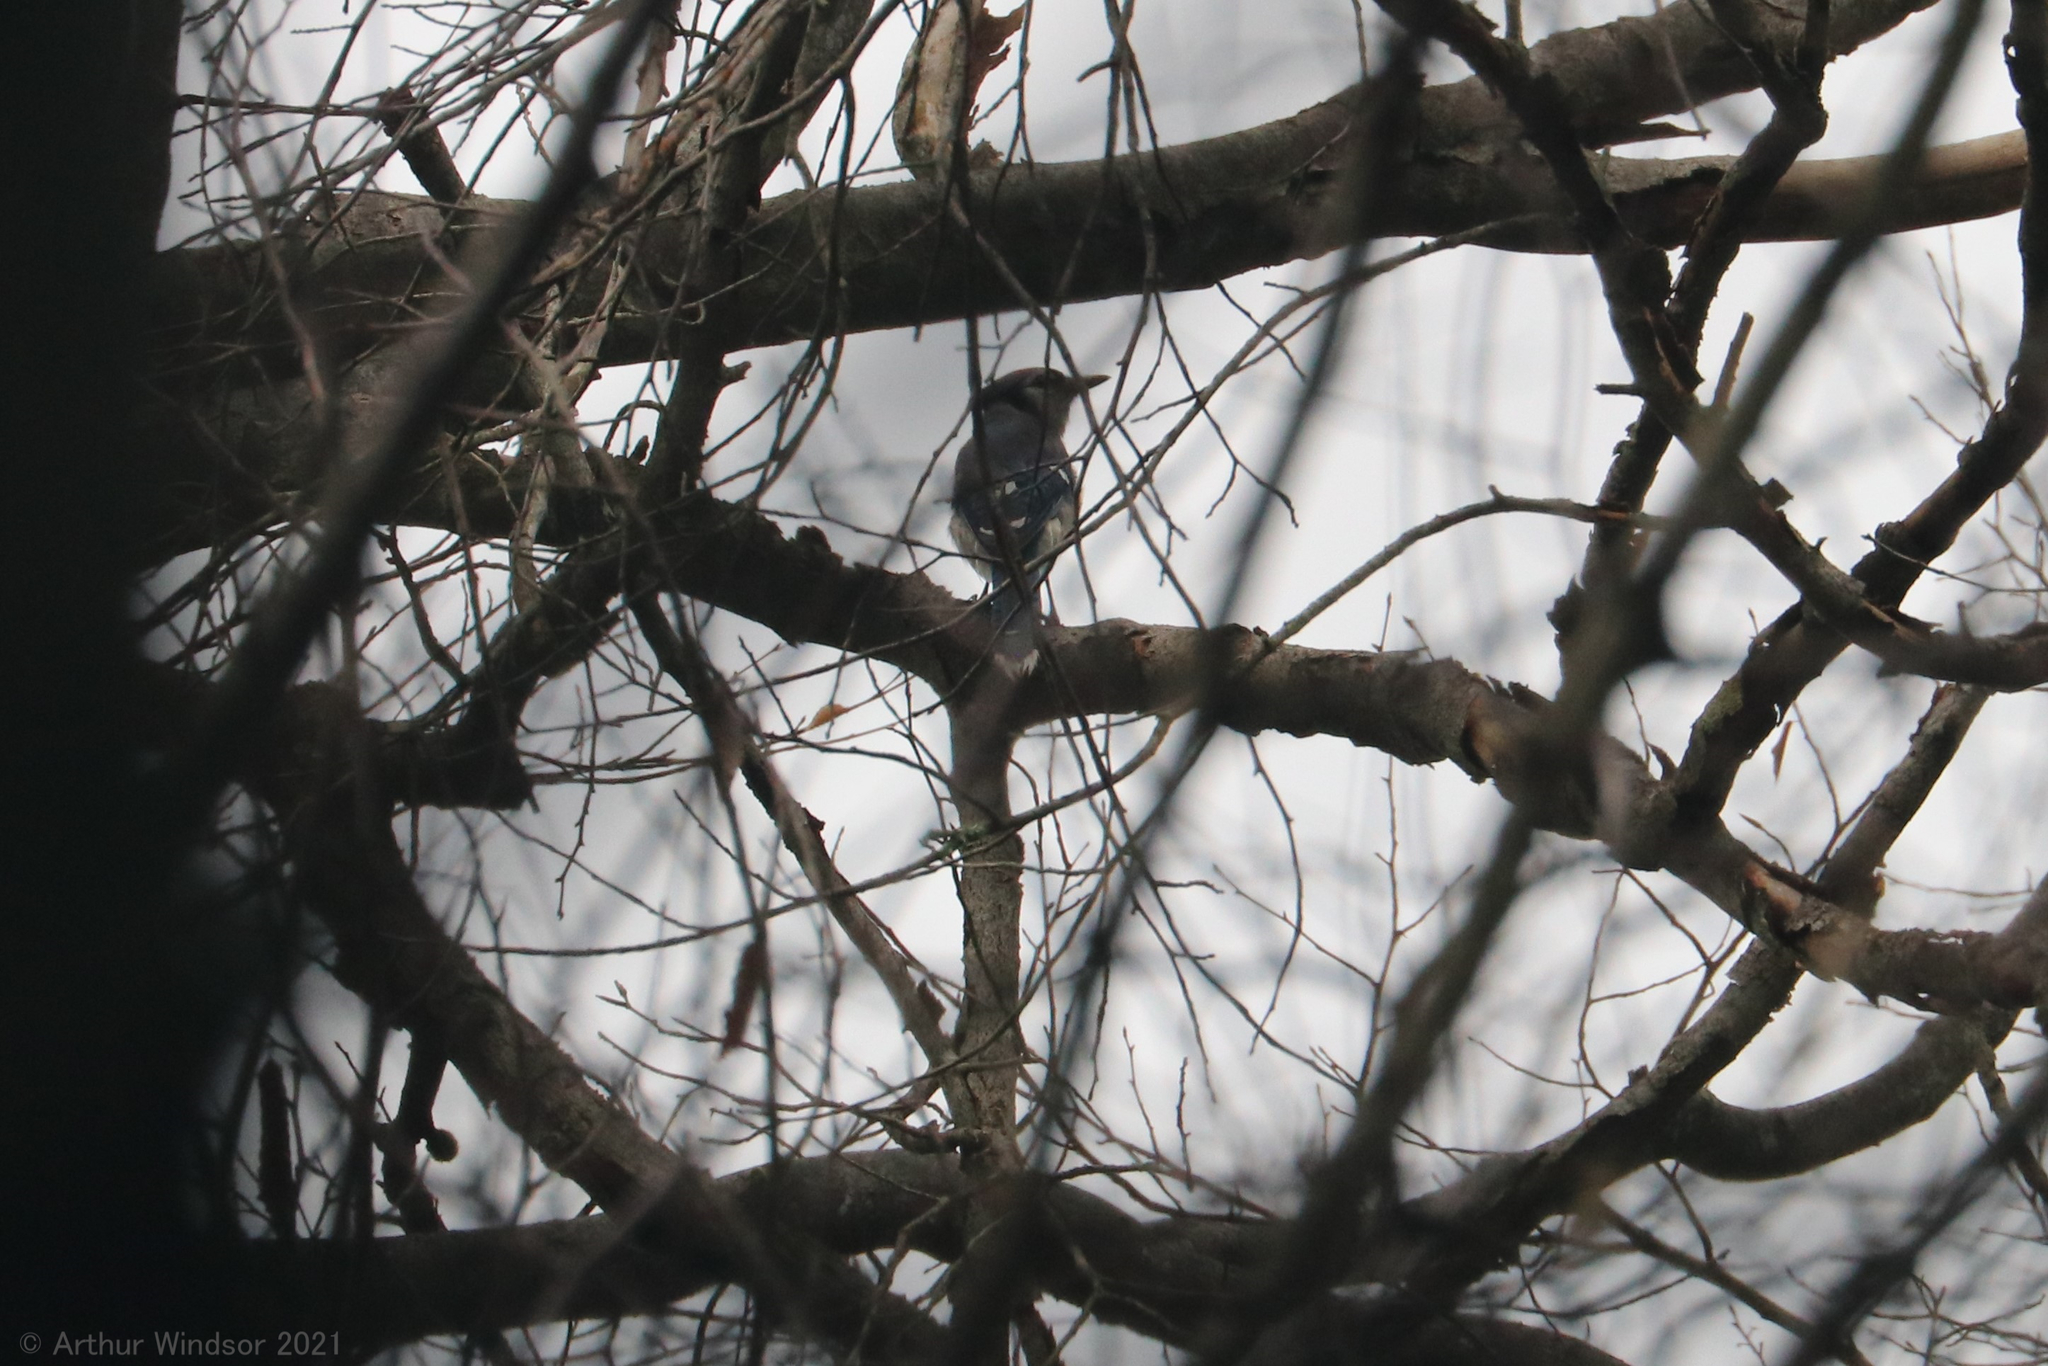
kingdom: Animalia
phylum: Chordata
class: Aves
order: Passeriformes
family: Corvidae
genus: Cyanocitta
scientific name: Cyanocitta cristata
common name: Blue jay
